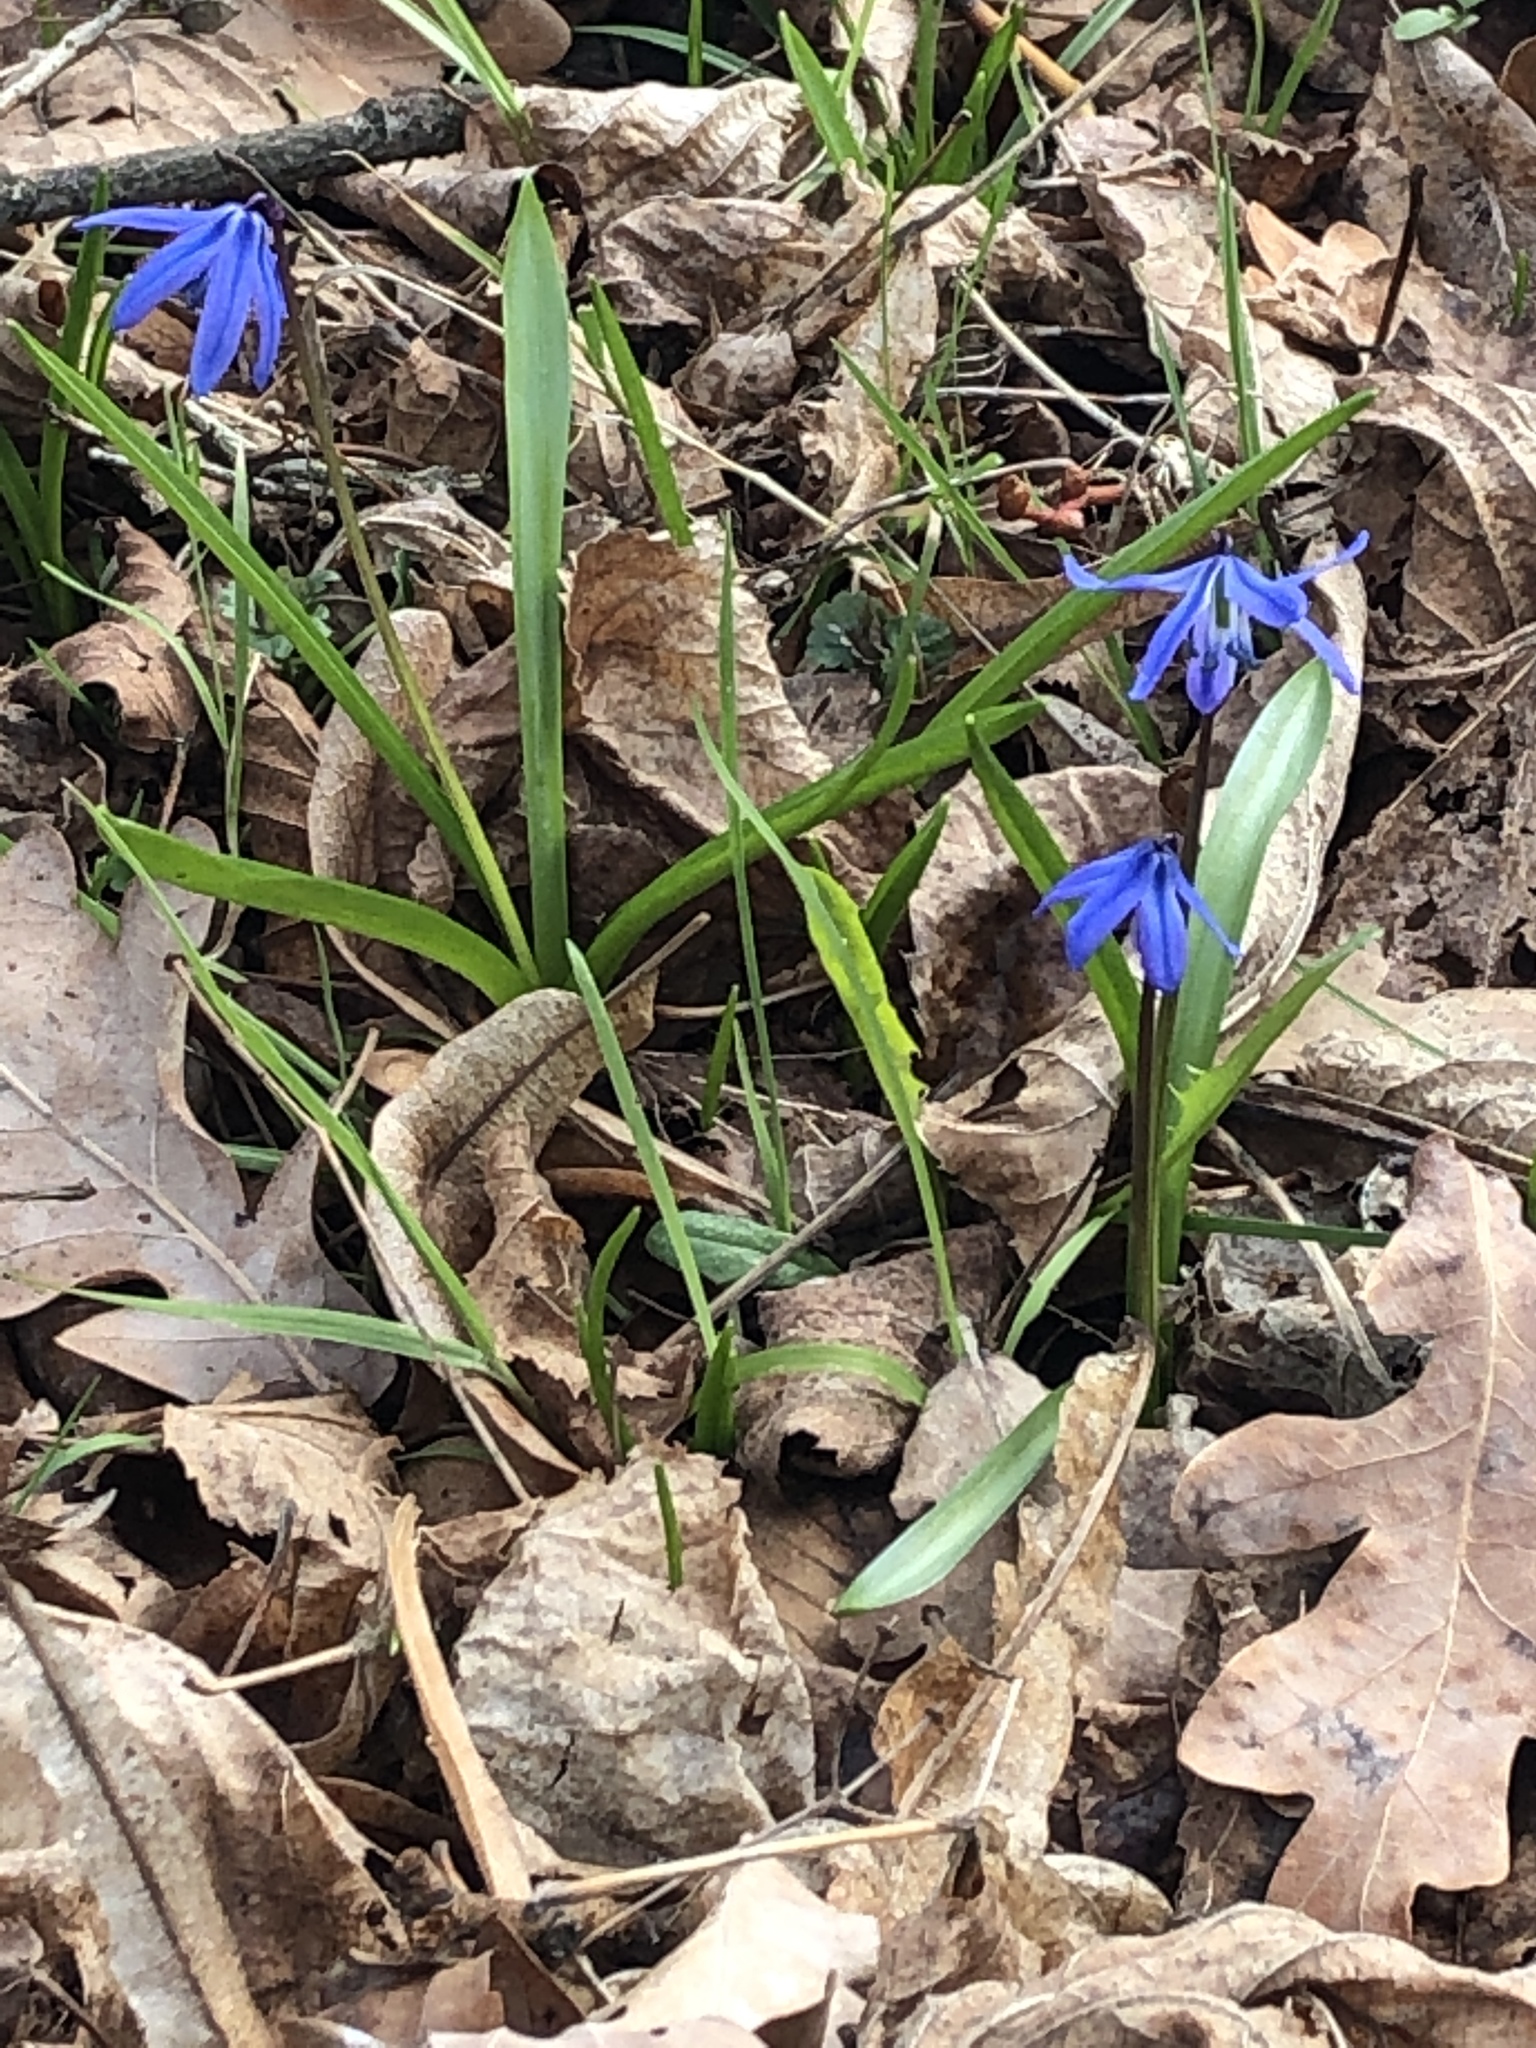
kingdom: Plantae
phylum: Tracheophyta
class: Liliopsida
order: Asparagales
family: Asparagaceae
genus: Scilla
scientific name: Scilla siberica
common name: Siberian squill
